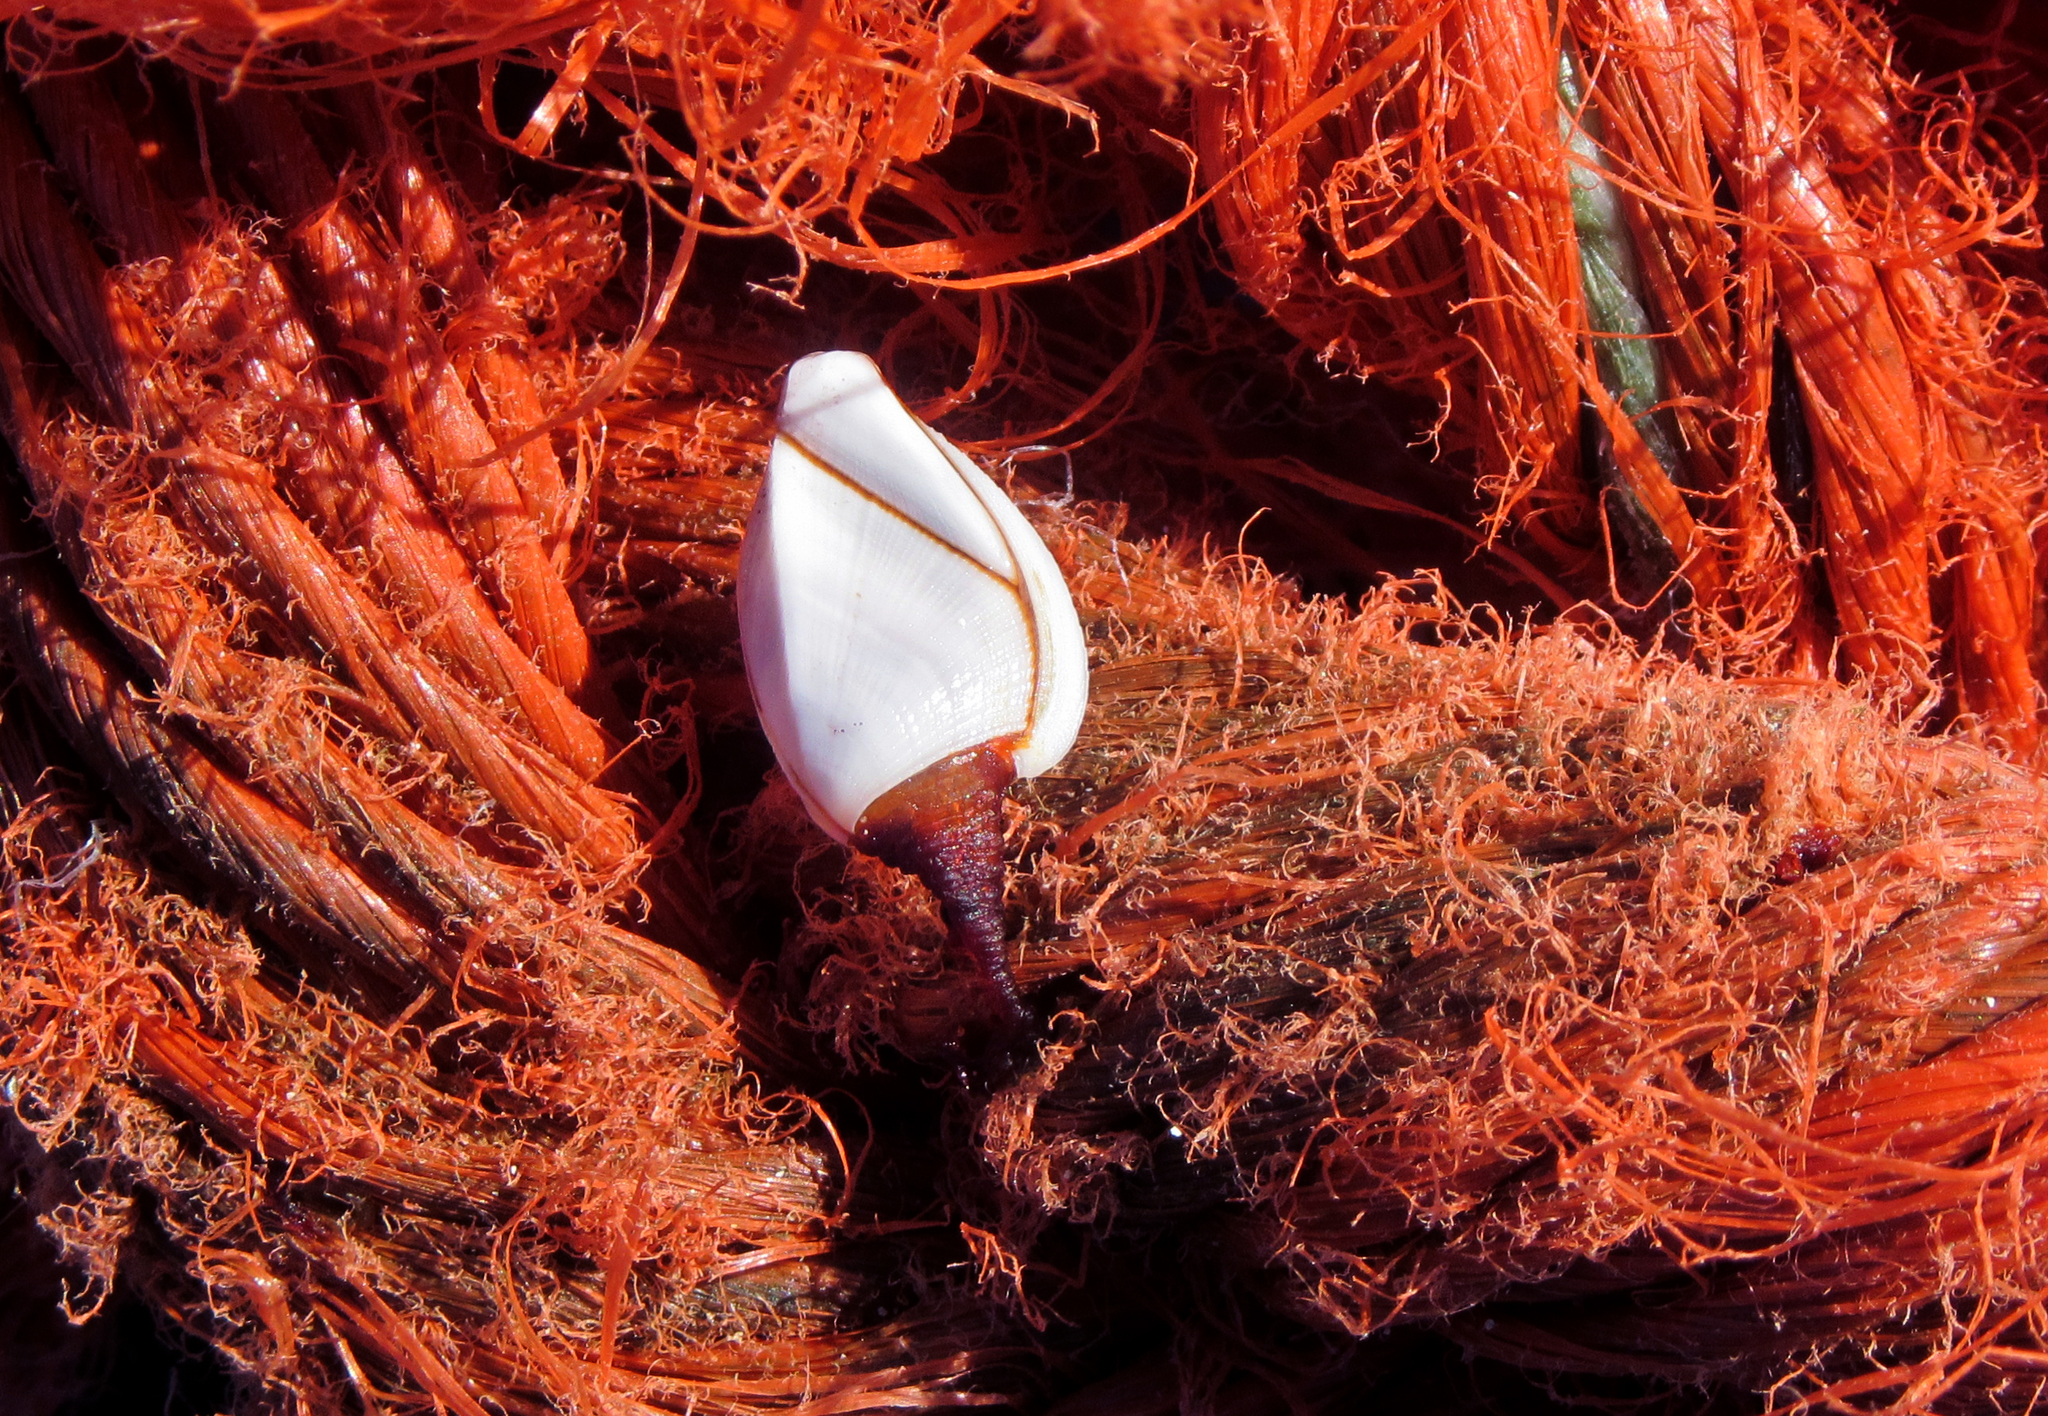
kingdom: Animalia
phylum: Arthropoda
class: Maxillopoda
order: Pedunculata
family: Lepadidae
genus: Lepas
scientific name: Lepas anserifera
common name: Goose barnacle
